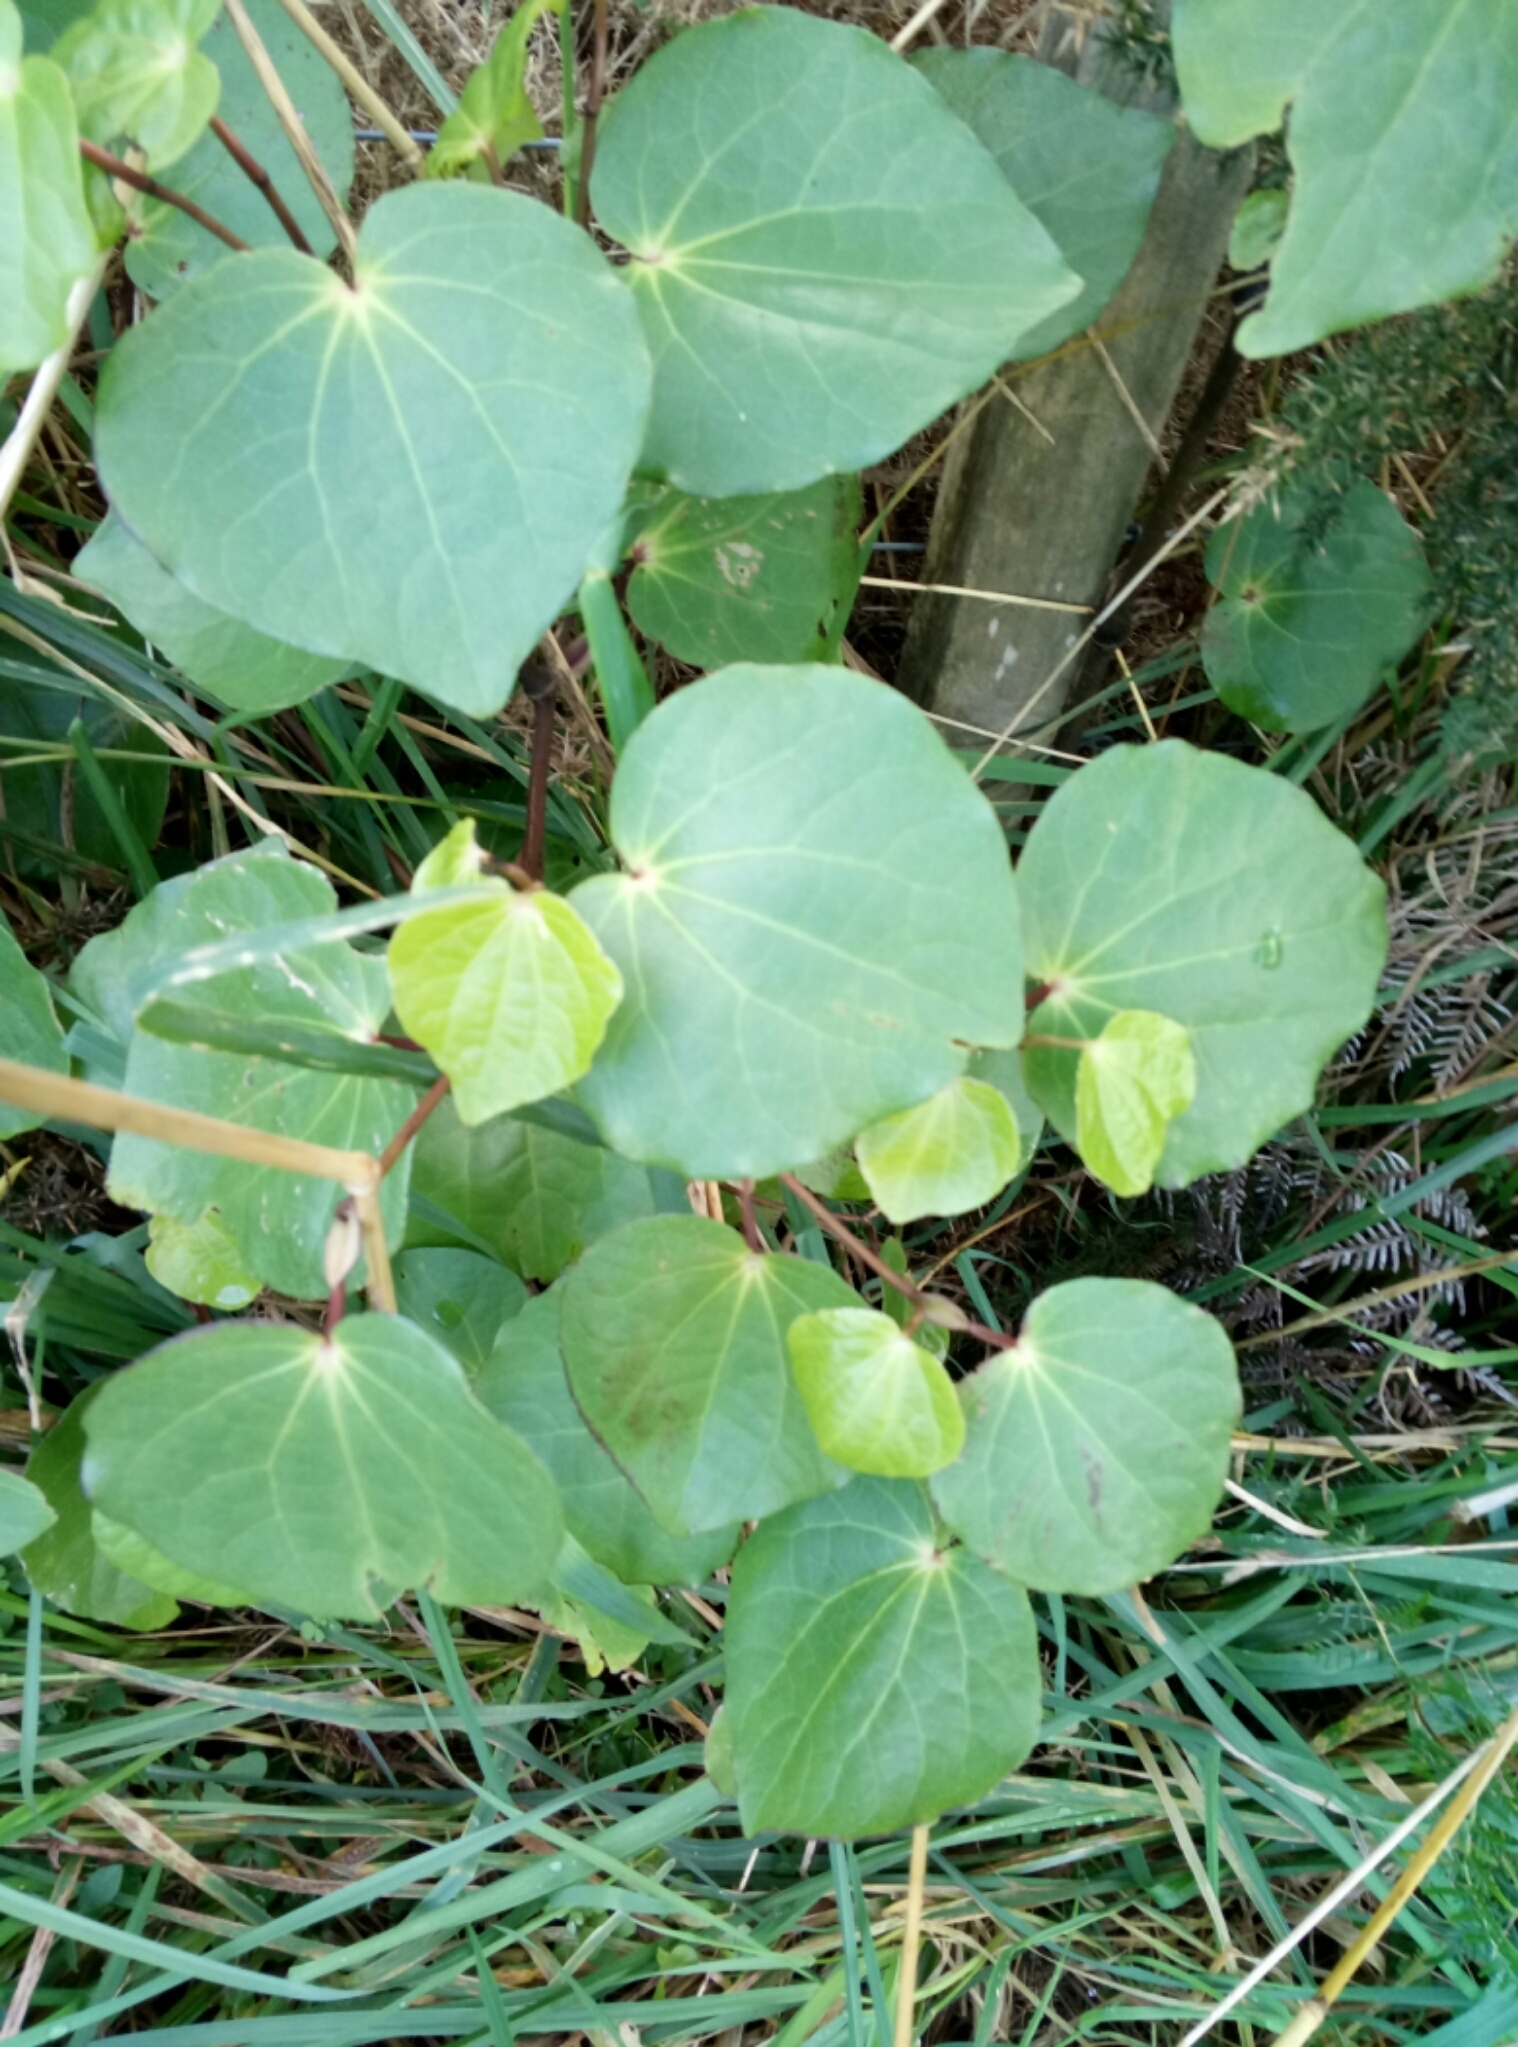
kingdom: Plantae
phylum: Tracheophyta
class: Magnoliopsida
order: Piperales
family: Piperaceae
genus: Macropiper
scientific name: Macropiper excelsum
